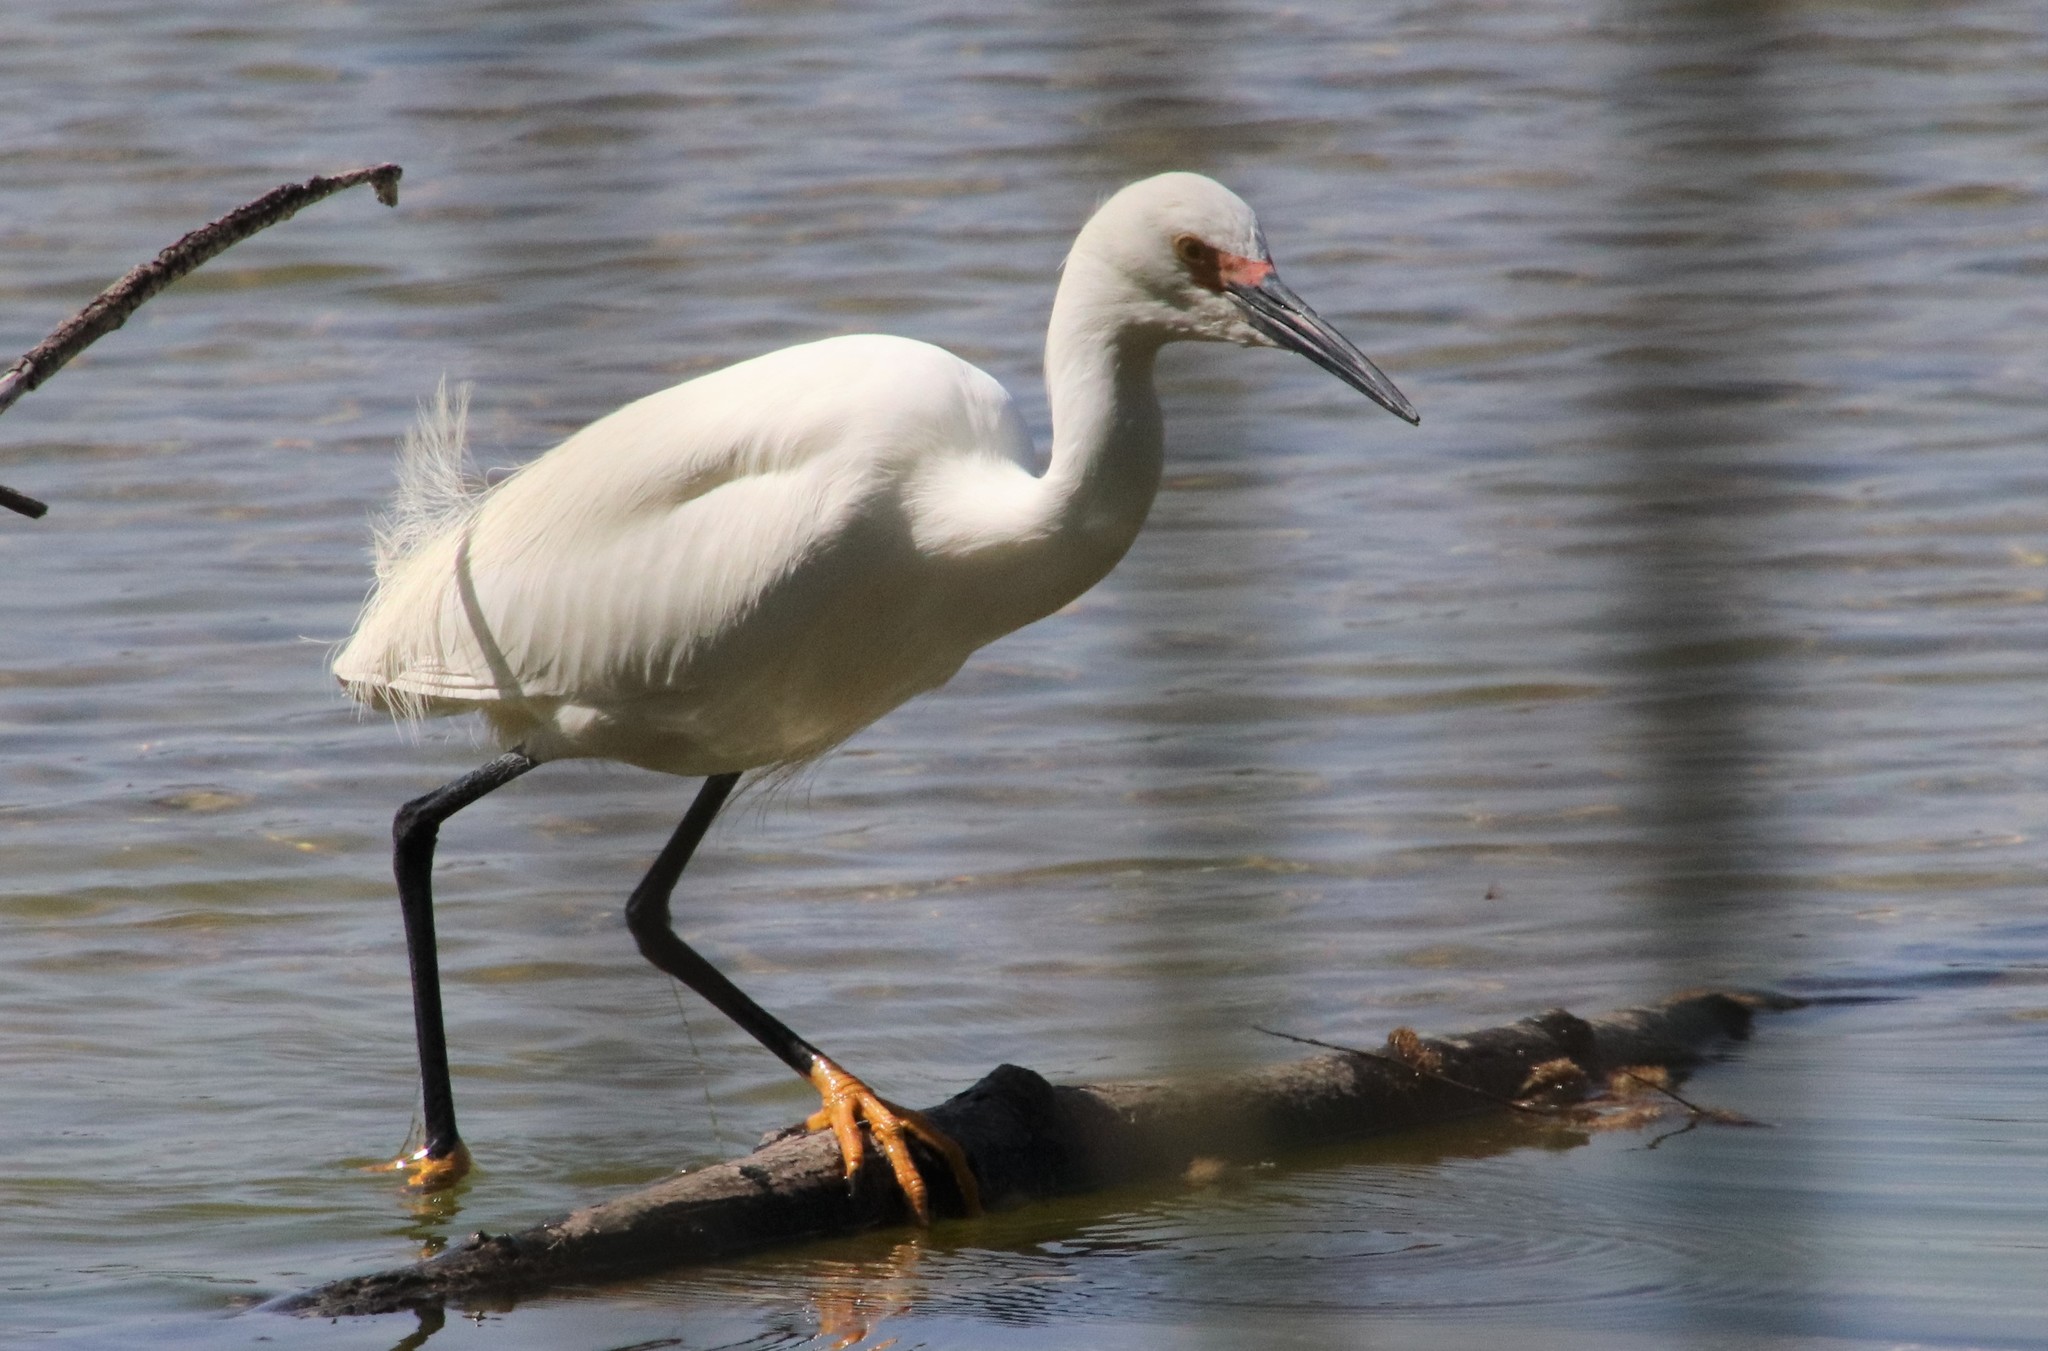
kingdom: Animalia
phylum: Chordata
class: Aves
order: Pelecaniformes
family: Ardeidae
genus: Egretta
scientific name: Egretta thula
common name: Snowy egret
